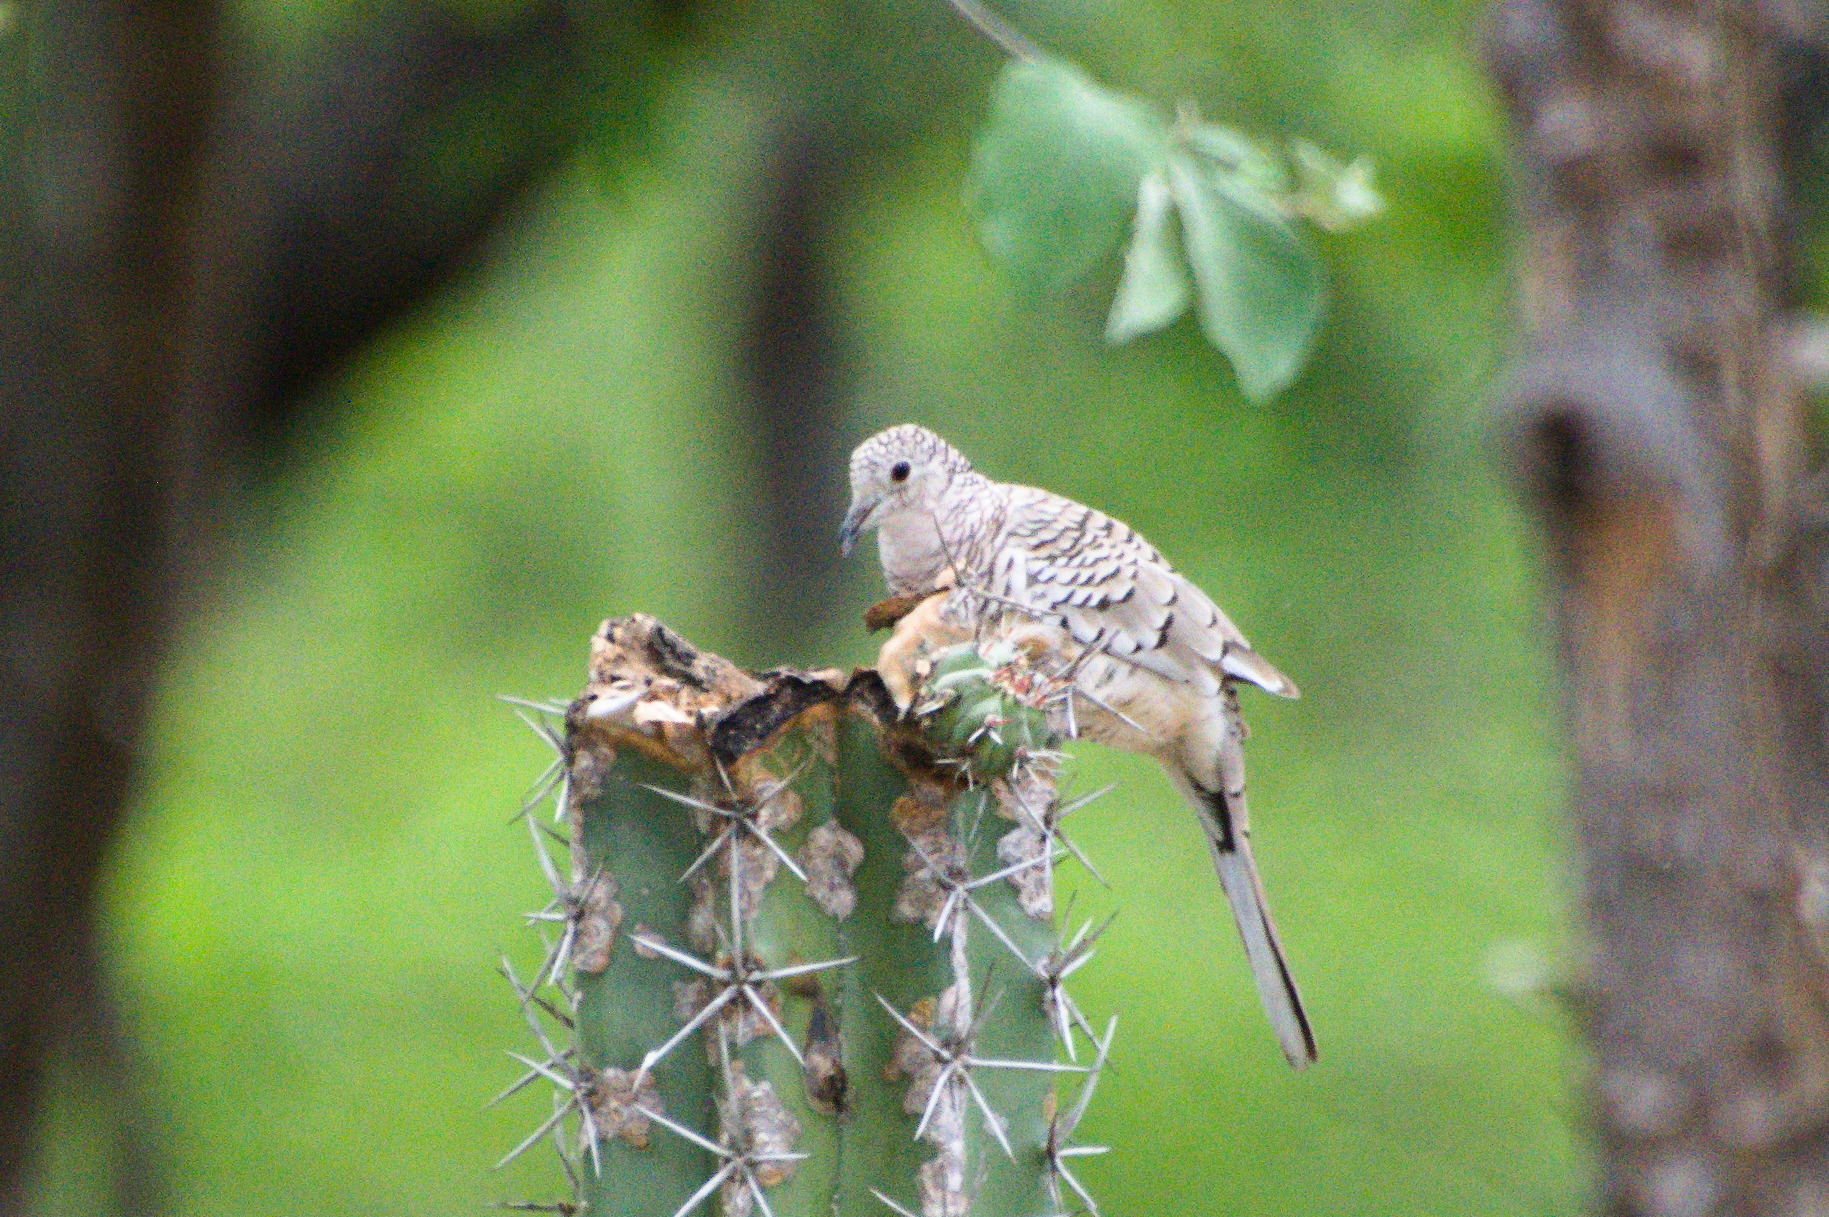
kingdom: Animalia
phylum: Chordata
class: Aves
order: Columbiformes
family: Columbidae
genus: Columbina
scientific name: Columbina squammata
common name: Scaled dove
